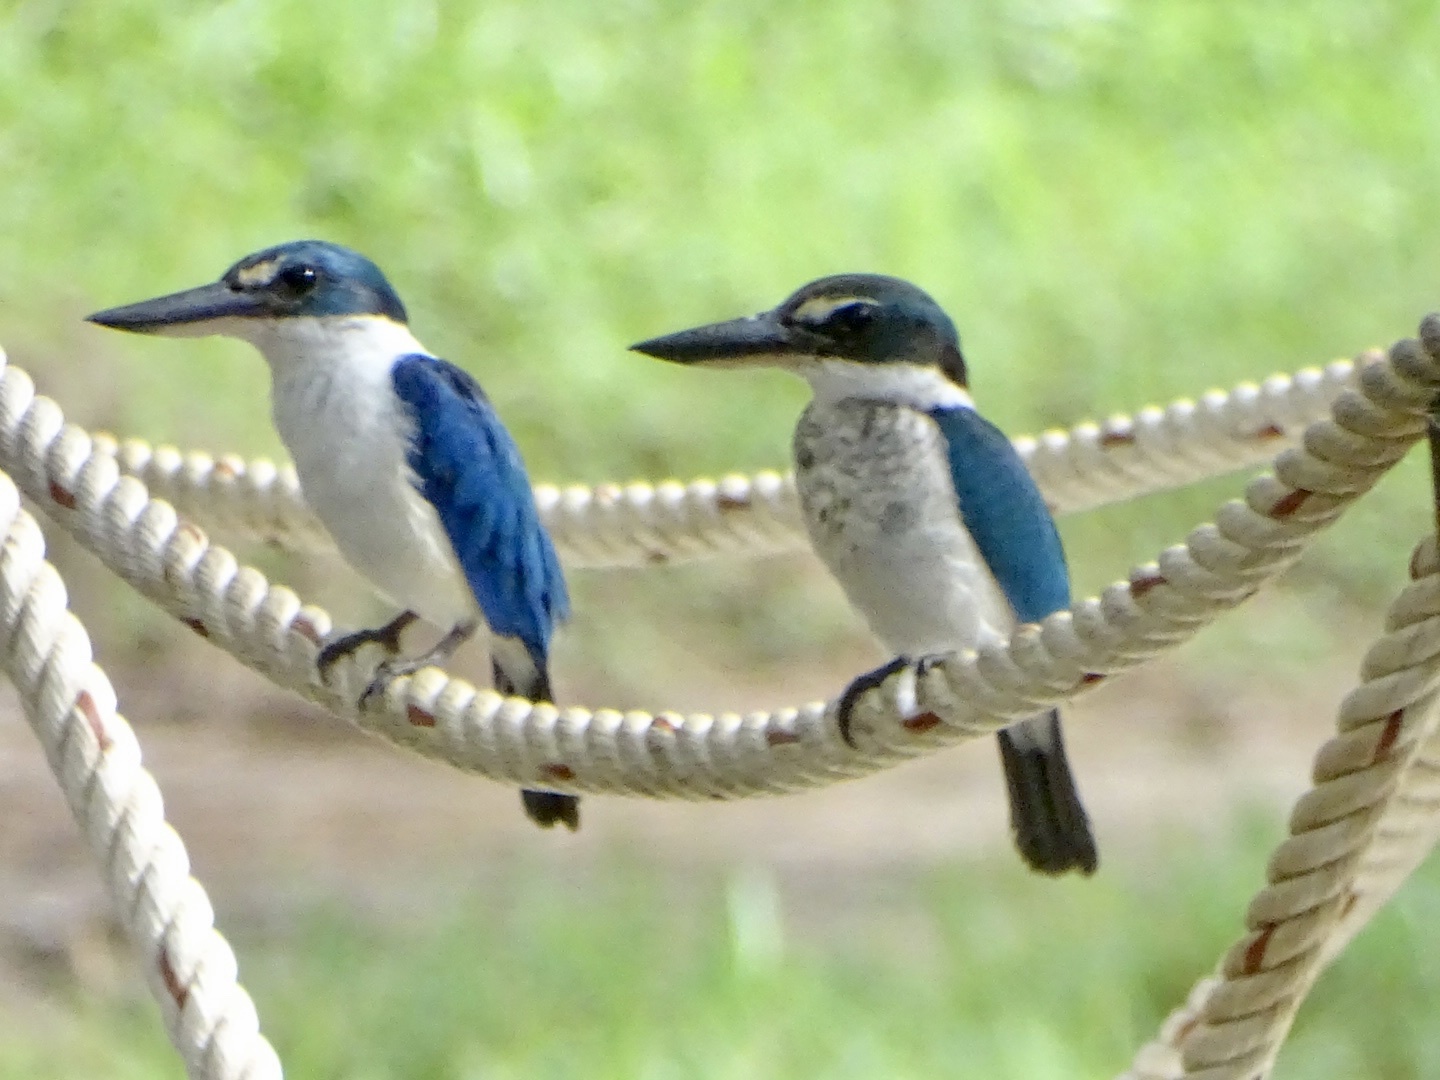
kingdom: Animalia
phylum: Chordata
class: Aves
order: Coraciiformes
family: Alcedinidae
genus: Todiramphus
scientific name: Todiramphus chloris
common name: Collared kingfisher
